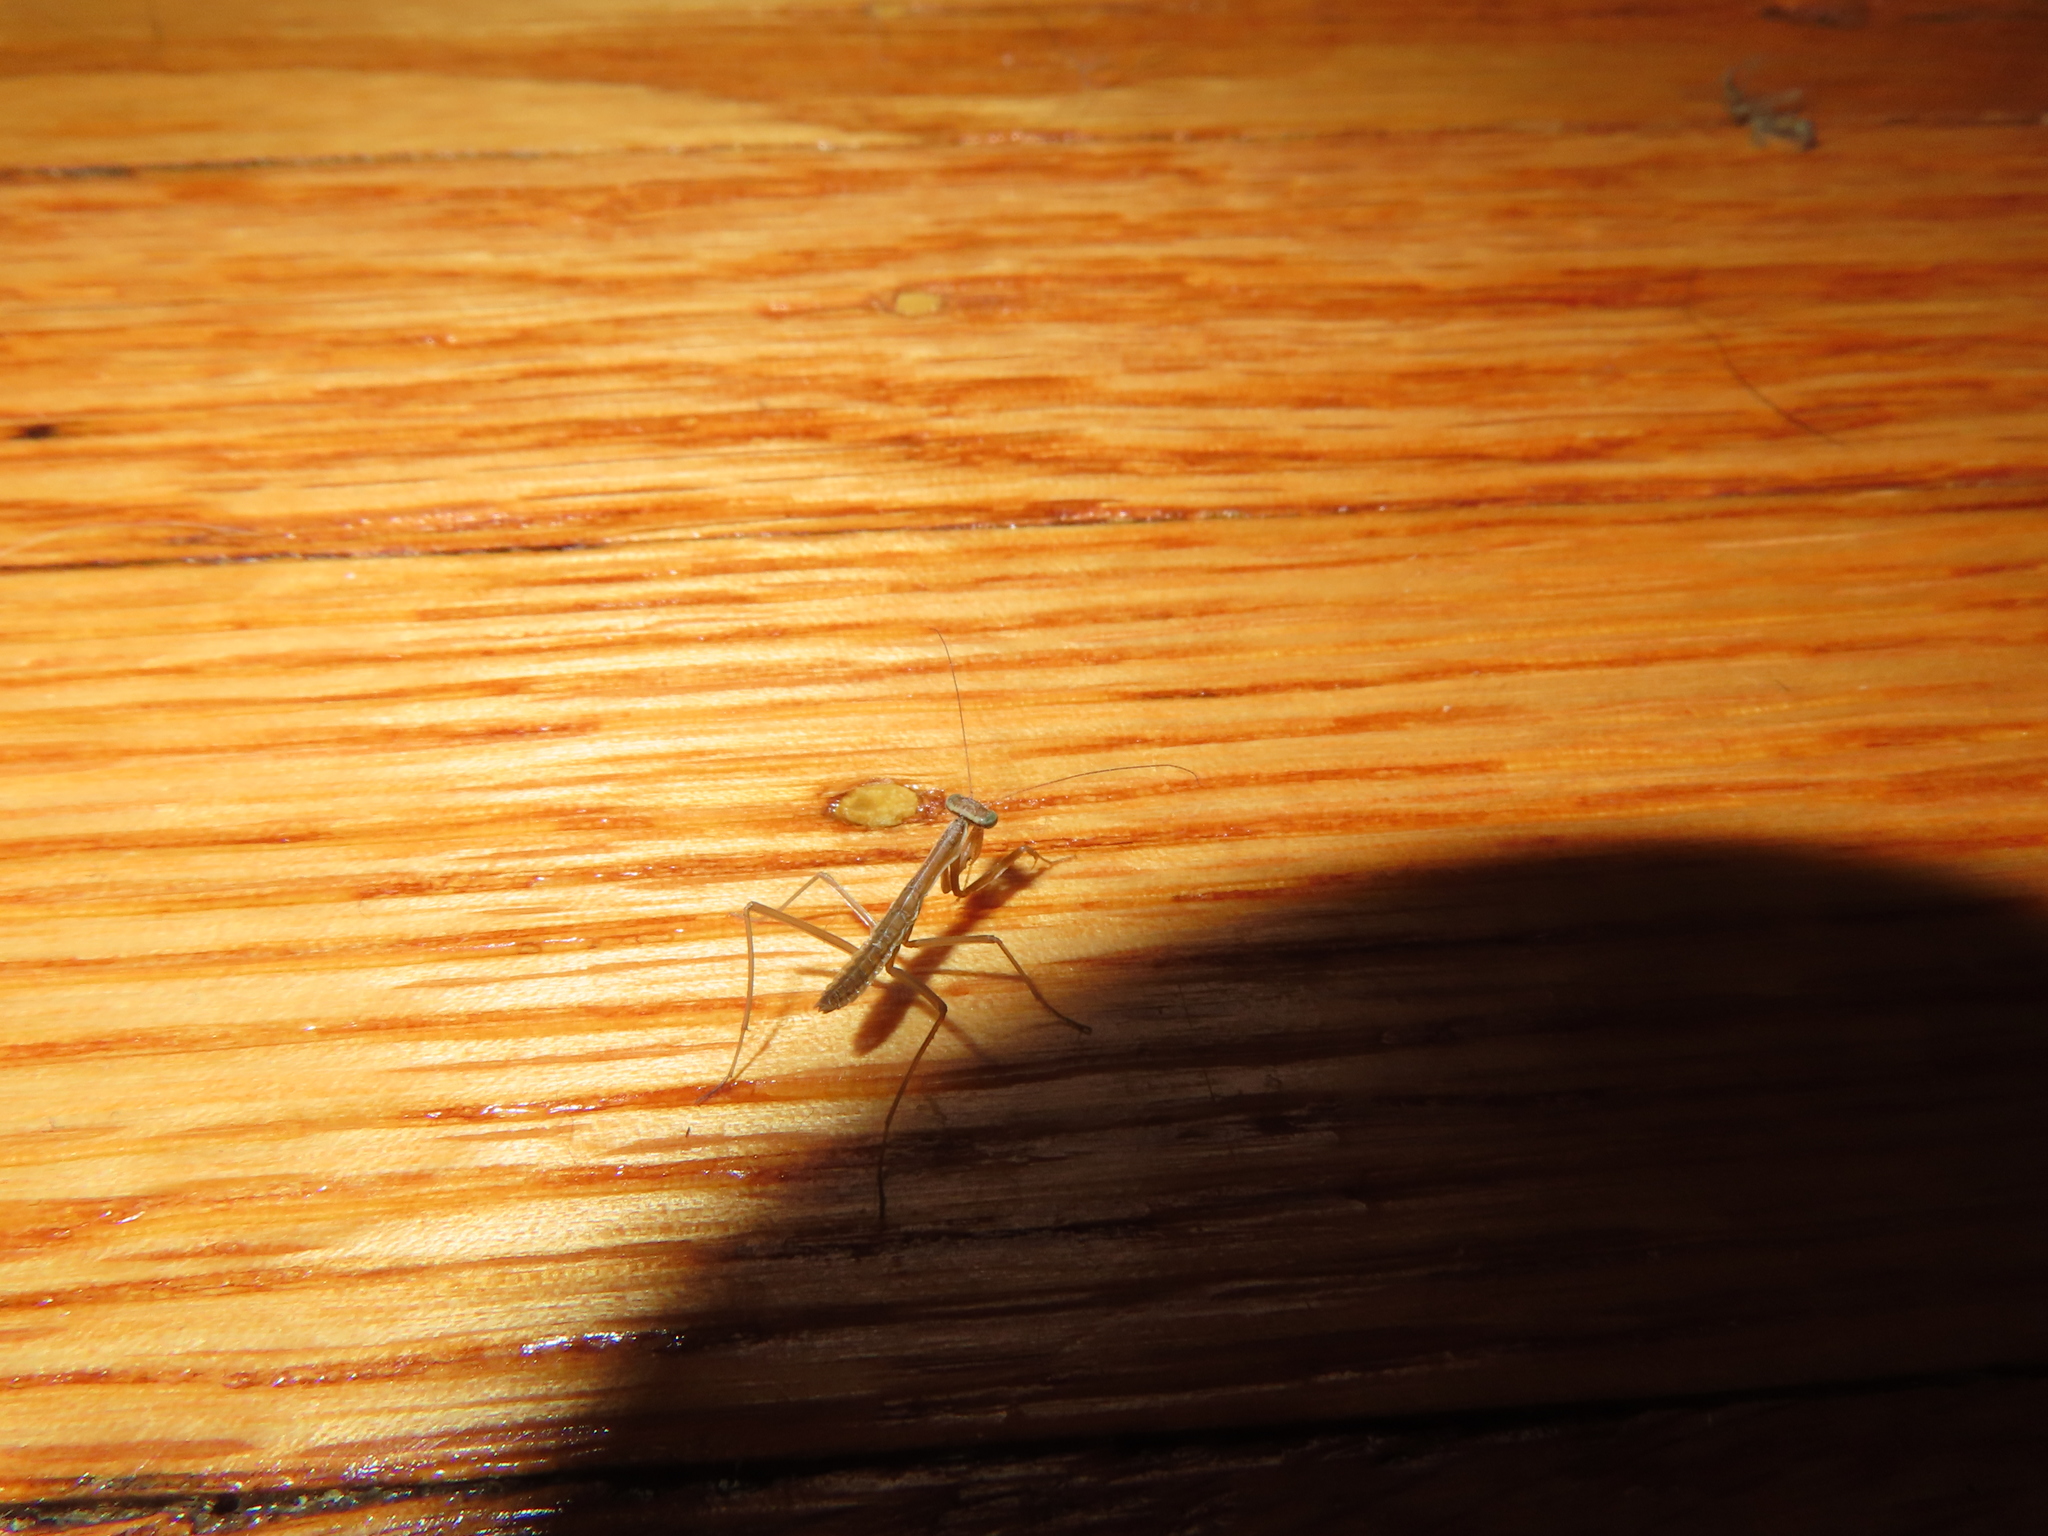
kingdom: Animalia
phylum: Arthropoda
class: Insecta
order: Mantodea
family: Mantidae
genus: Tenodera
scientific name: Tenodera sinensis
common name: Chinese mantis
